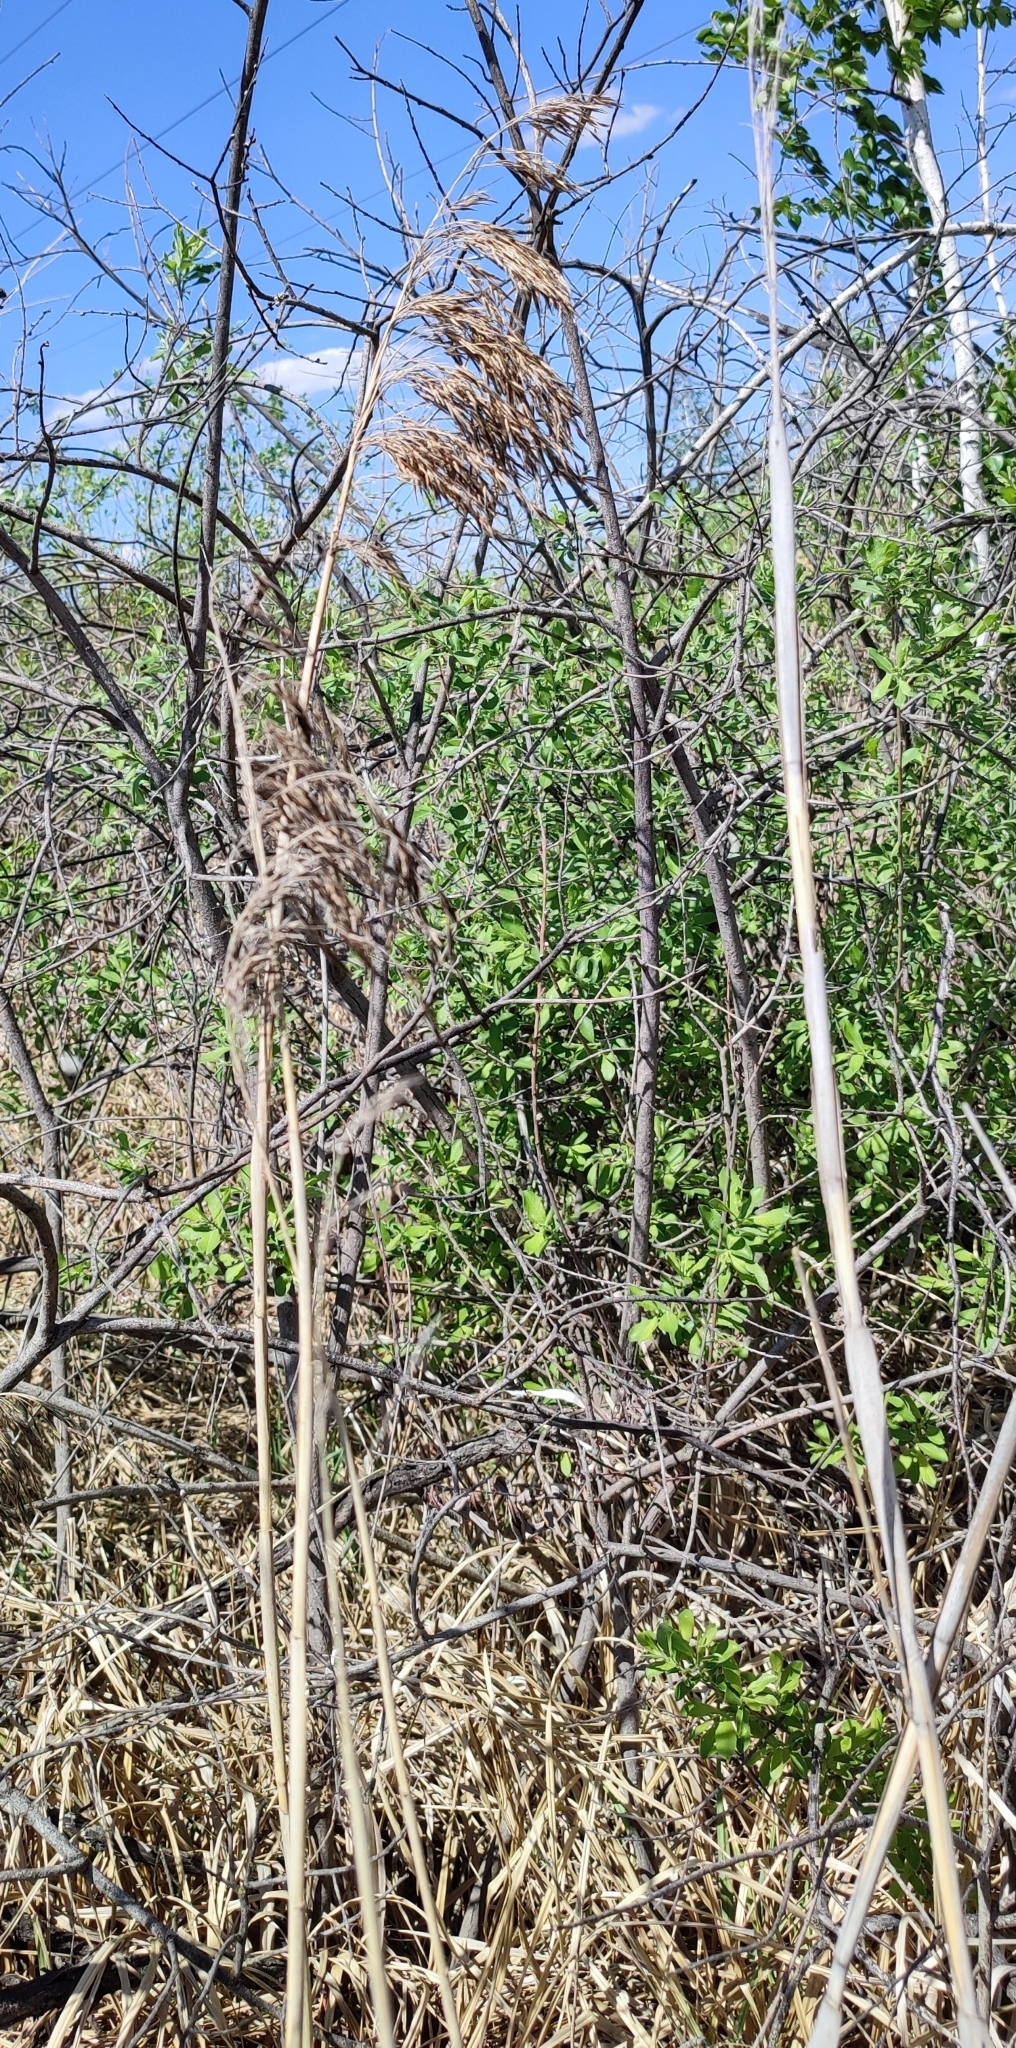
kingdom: Plantae
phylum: Tracheophyta
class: Liliopsida
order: Poales
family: Poaceae
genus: Phragmites
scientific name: Phragmites australis
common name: Common reed
